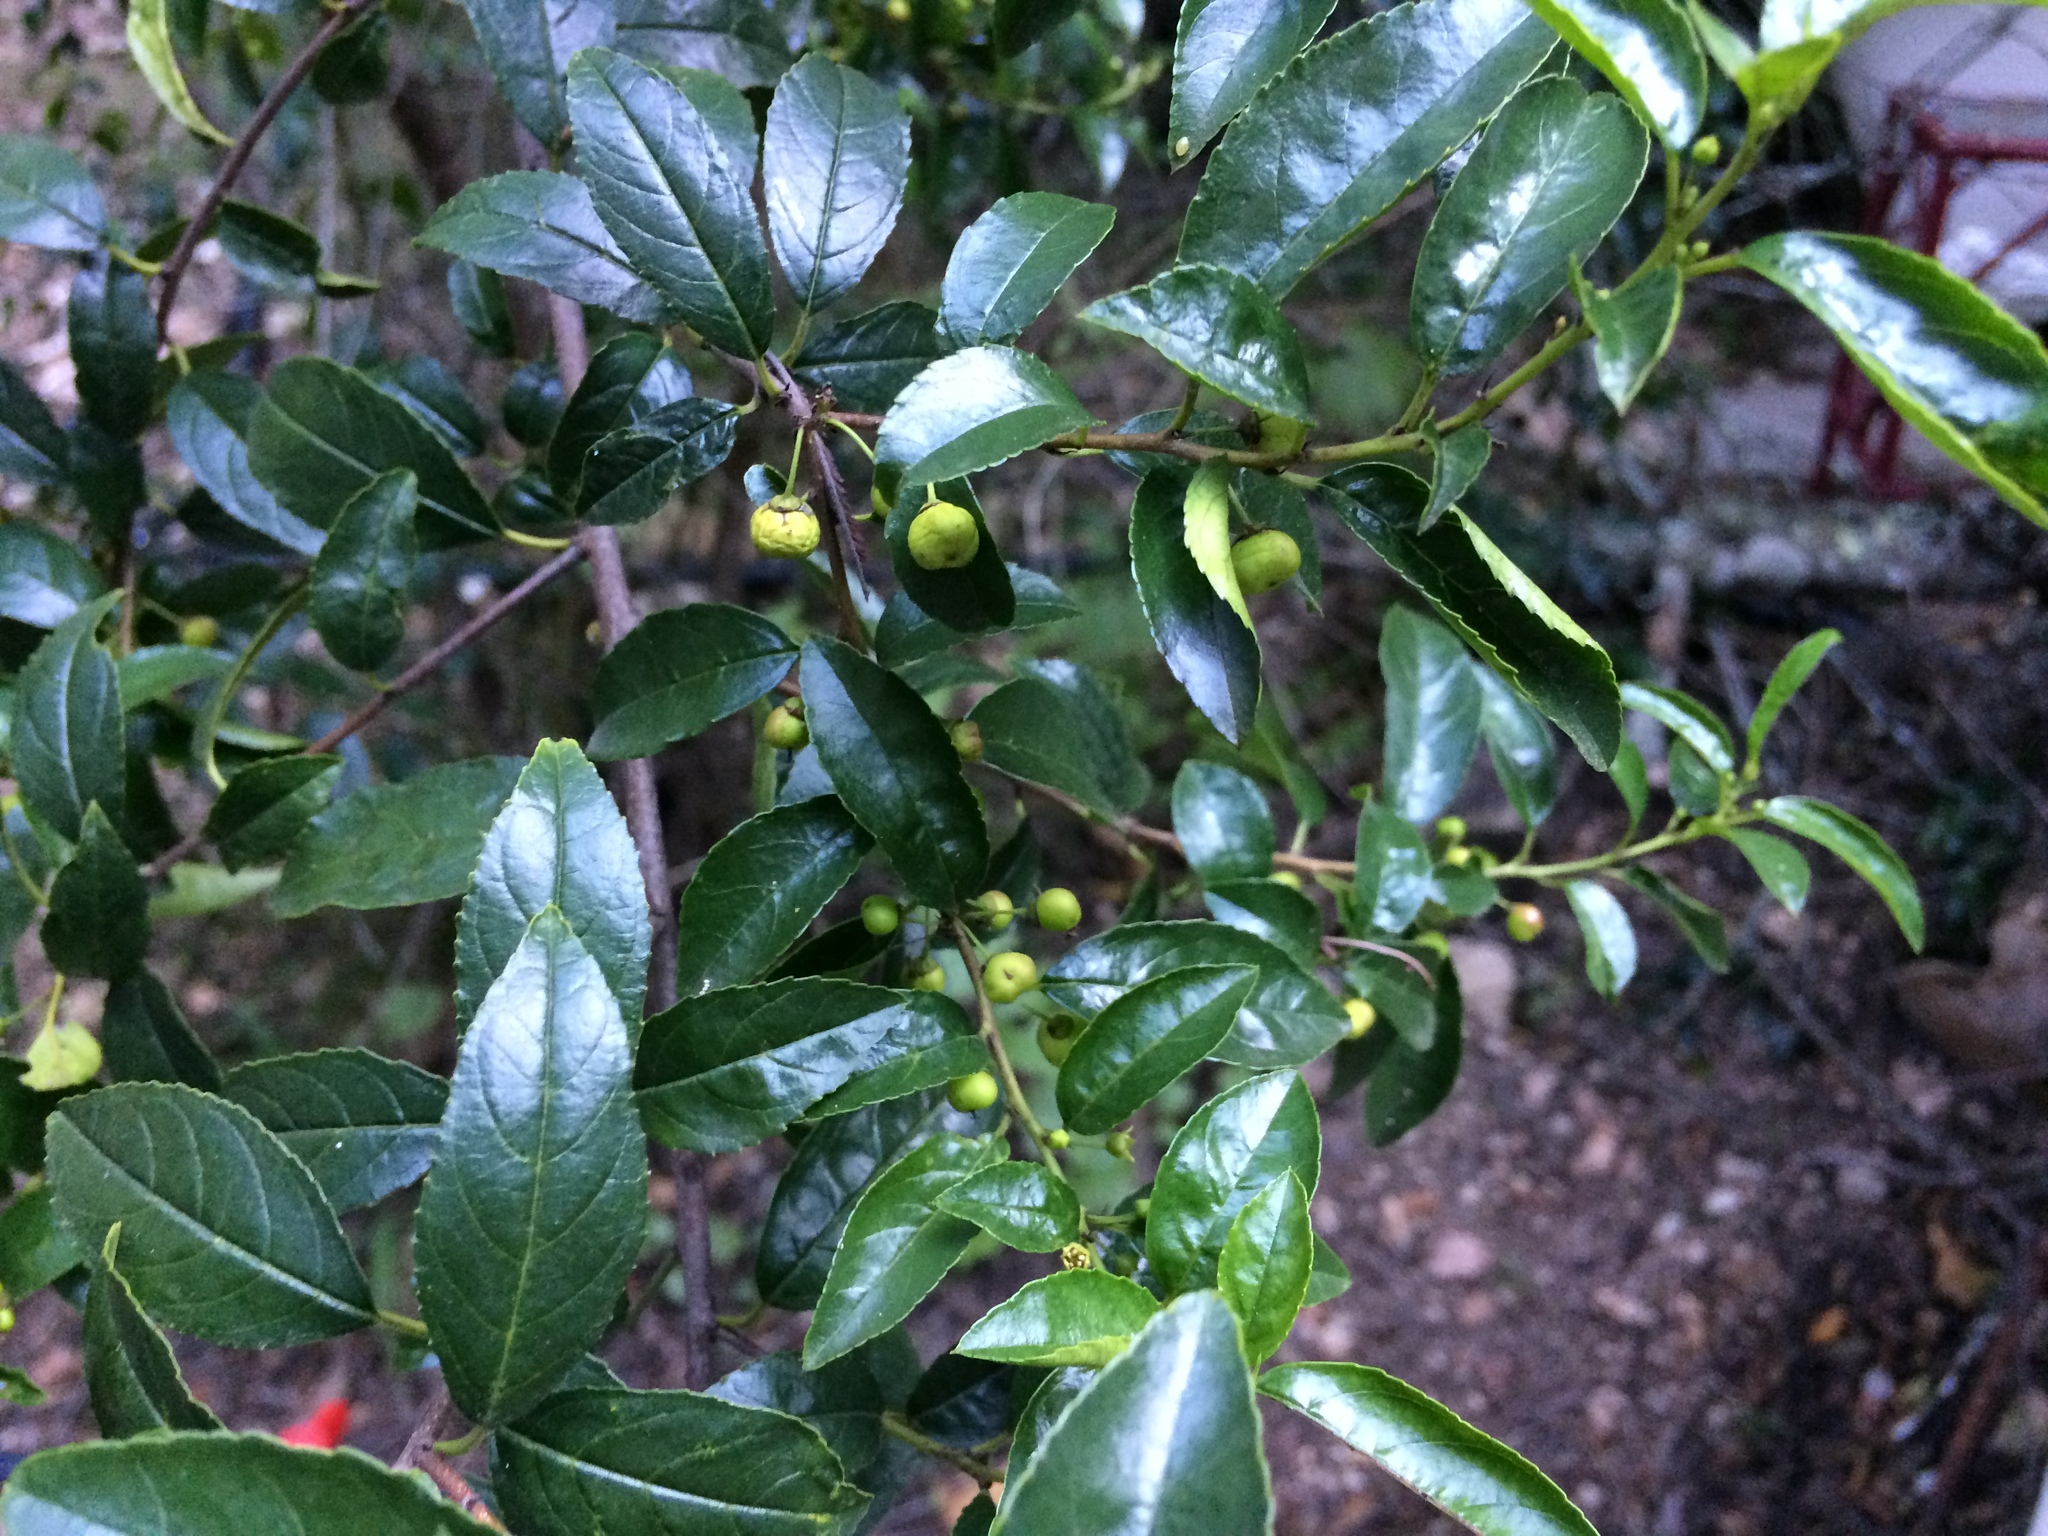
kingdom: Plantae
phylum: Tracheophyta
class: Magnoliopsida
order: Rosales
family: Rhamnaceae
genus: Rhamnus
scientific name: Rhamnus prinoides
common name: Dogwood
